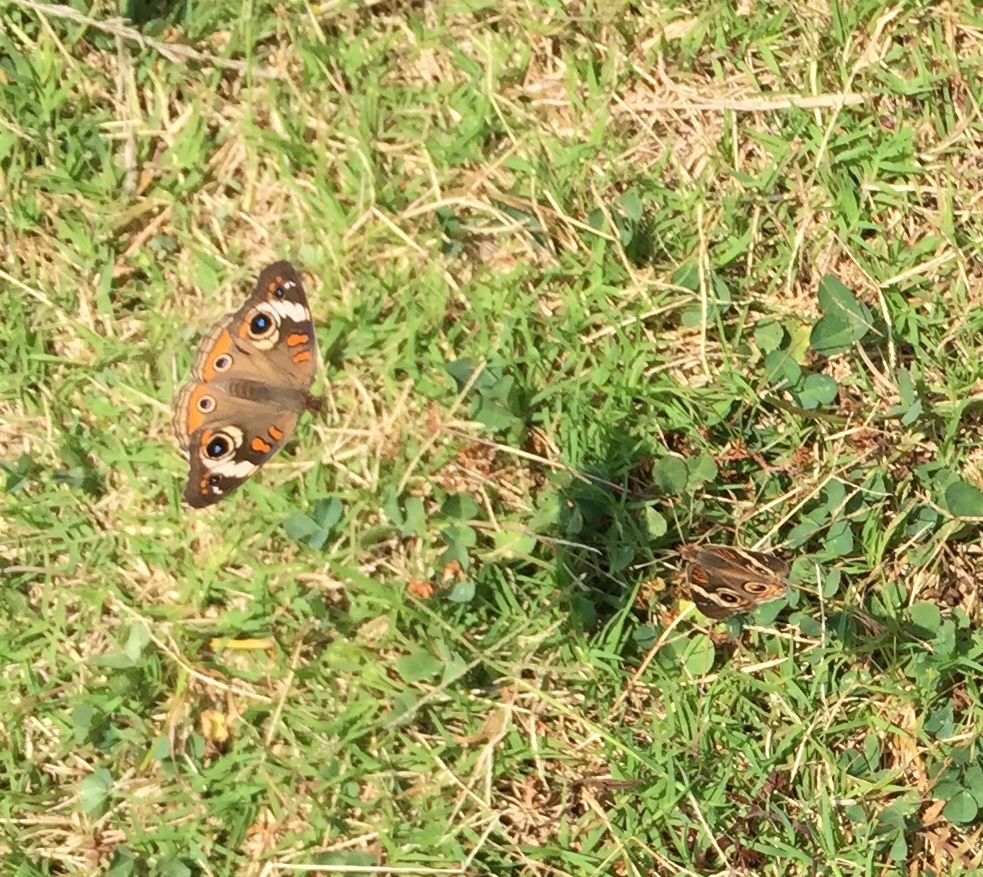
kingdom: Animalia
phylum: Arthropoda
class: Insecta
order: Lepidoptera
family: Nymphalidae
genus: Junonia
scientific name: Junonia coenia
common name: Common buckeye
